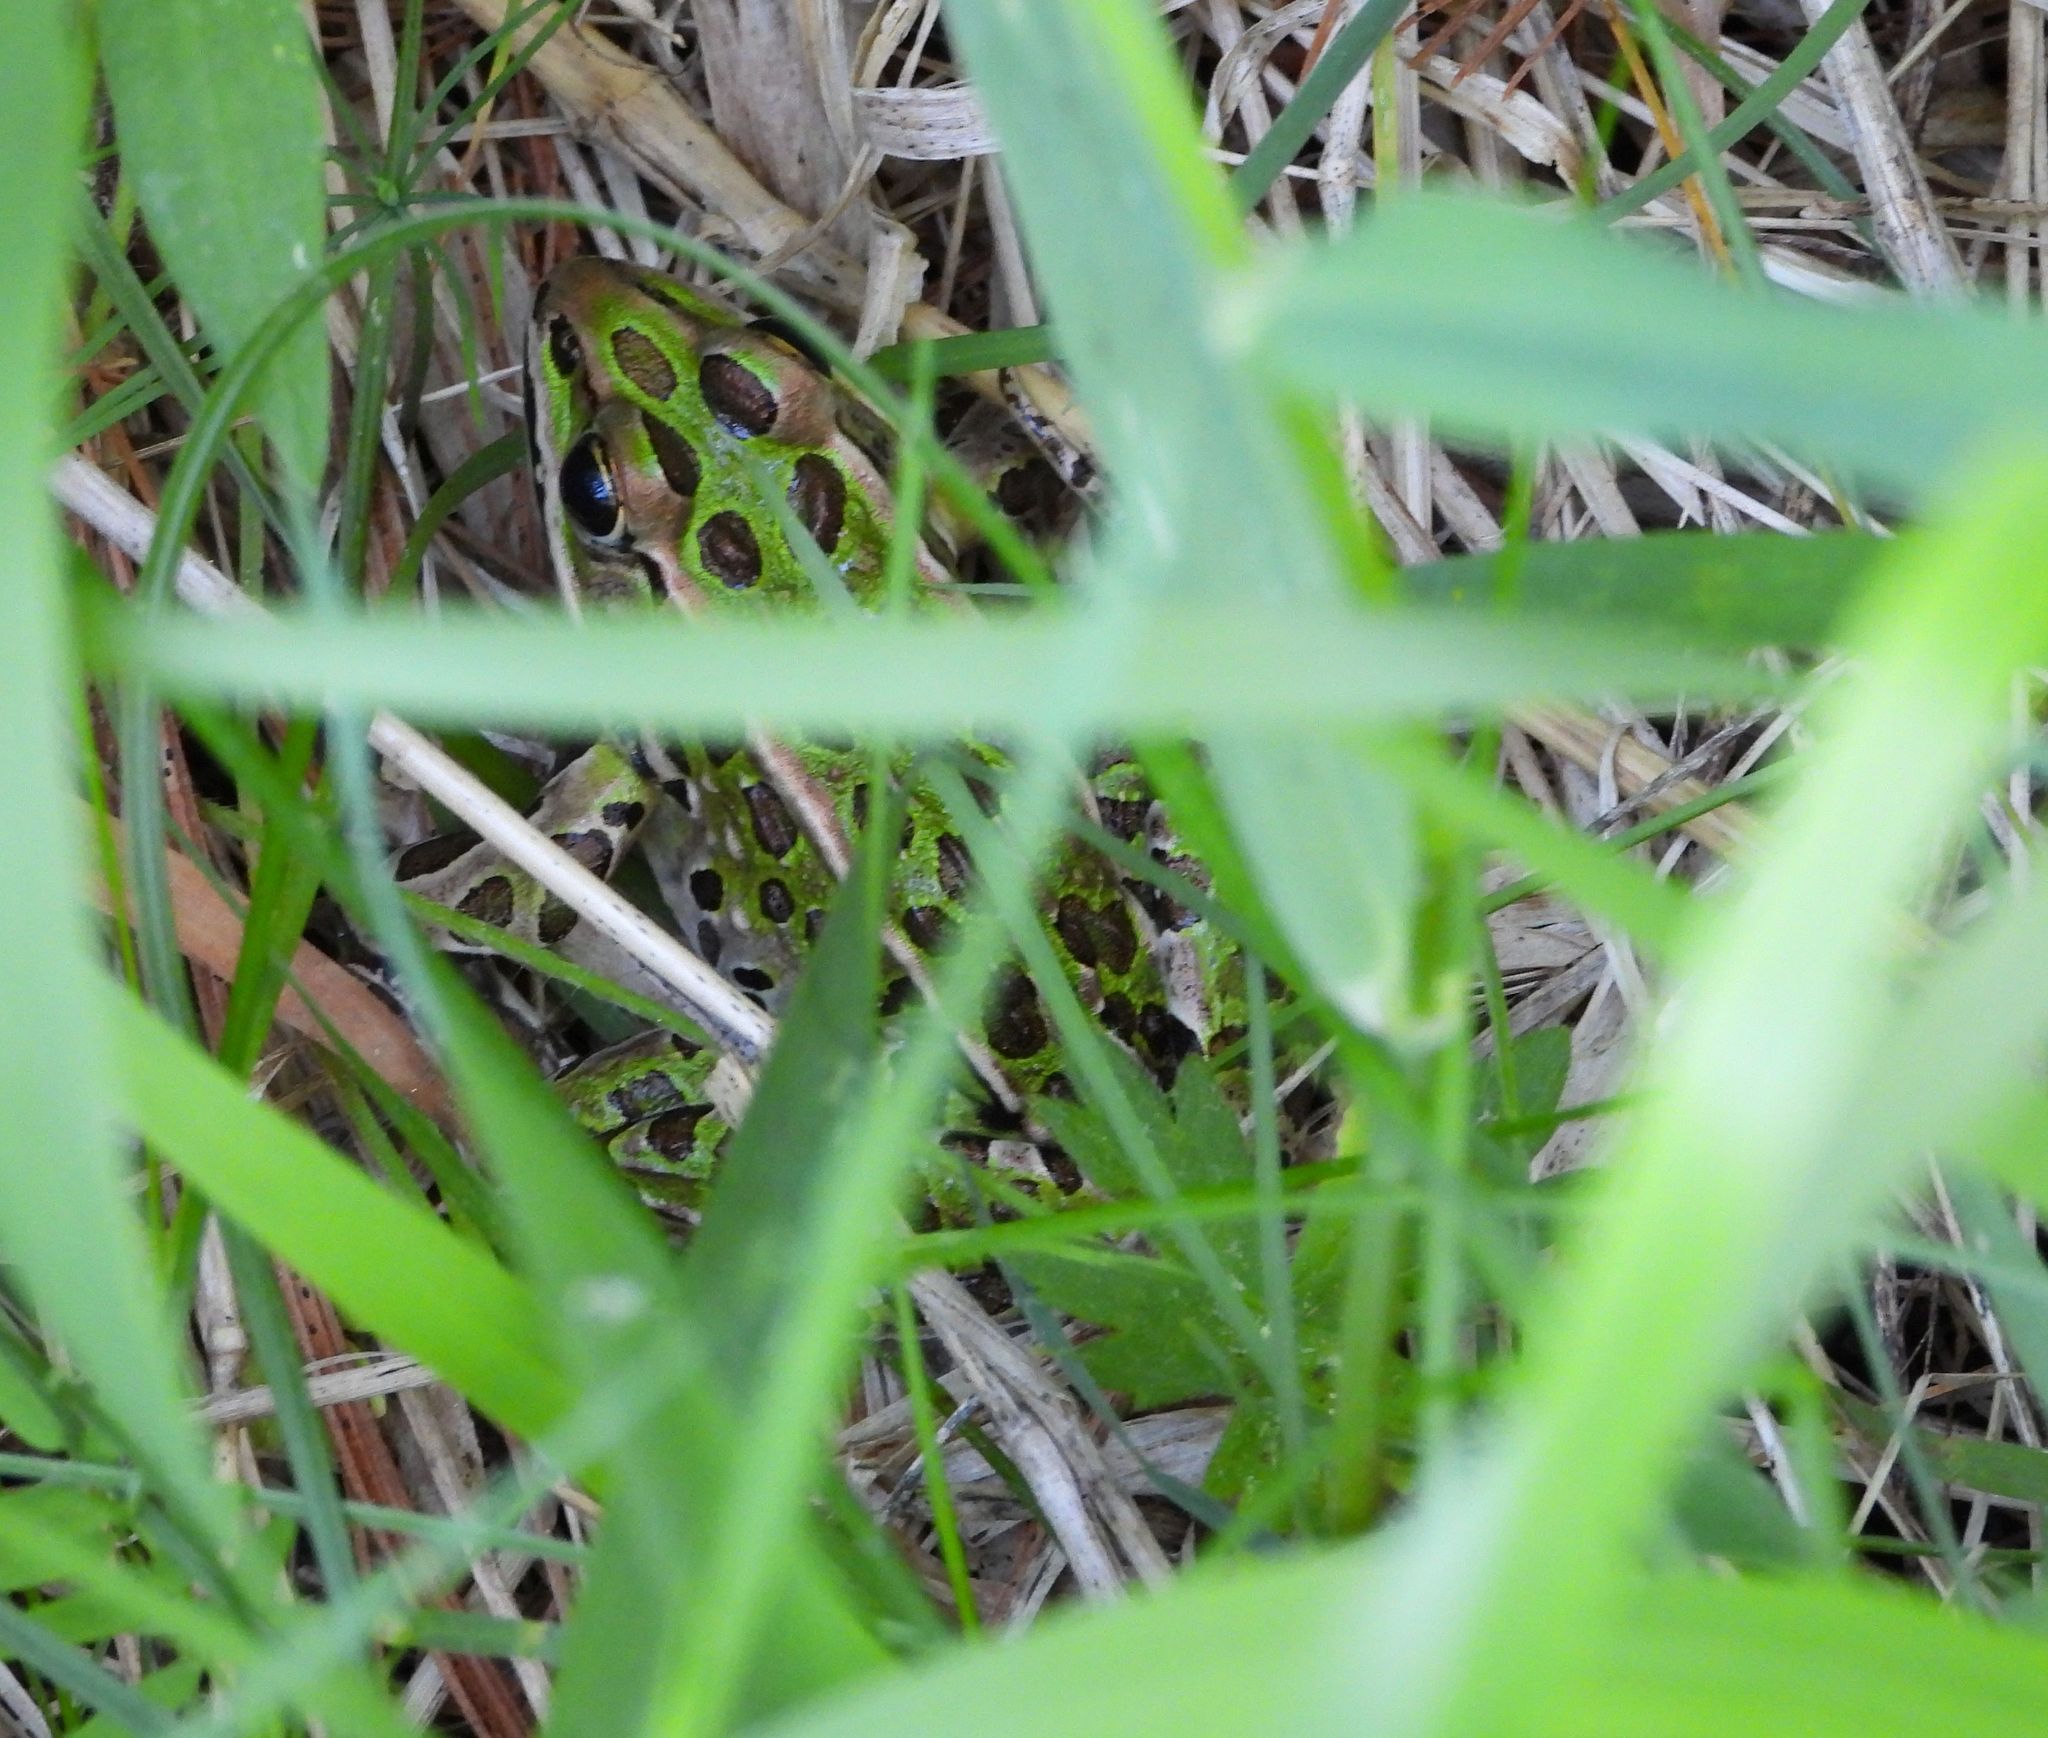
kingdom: Animalia
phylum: Chordata
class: Amphibia
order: Anura
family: Ranidae
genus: Lithobates
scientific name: Lithobates pipiens
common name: Northern leopard frog
